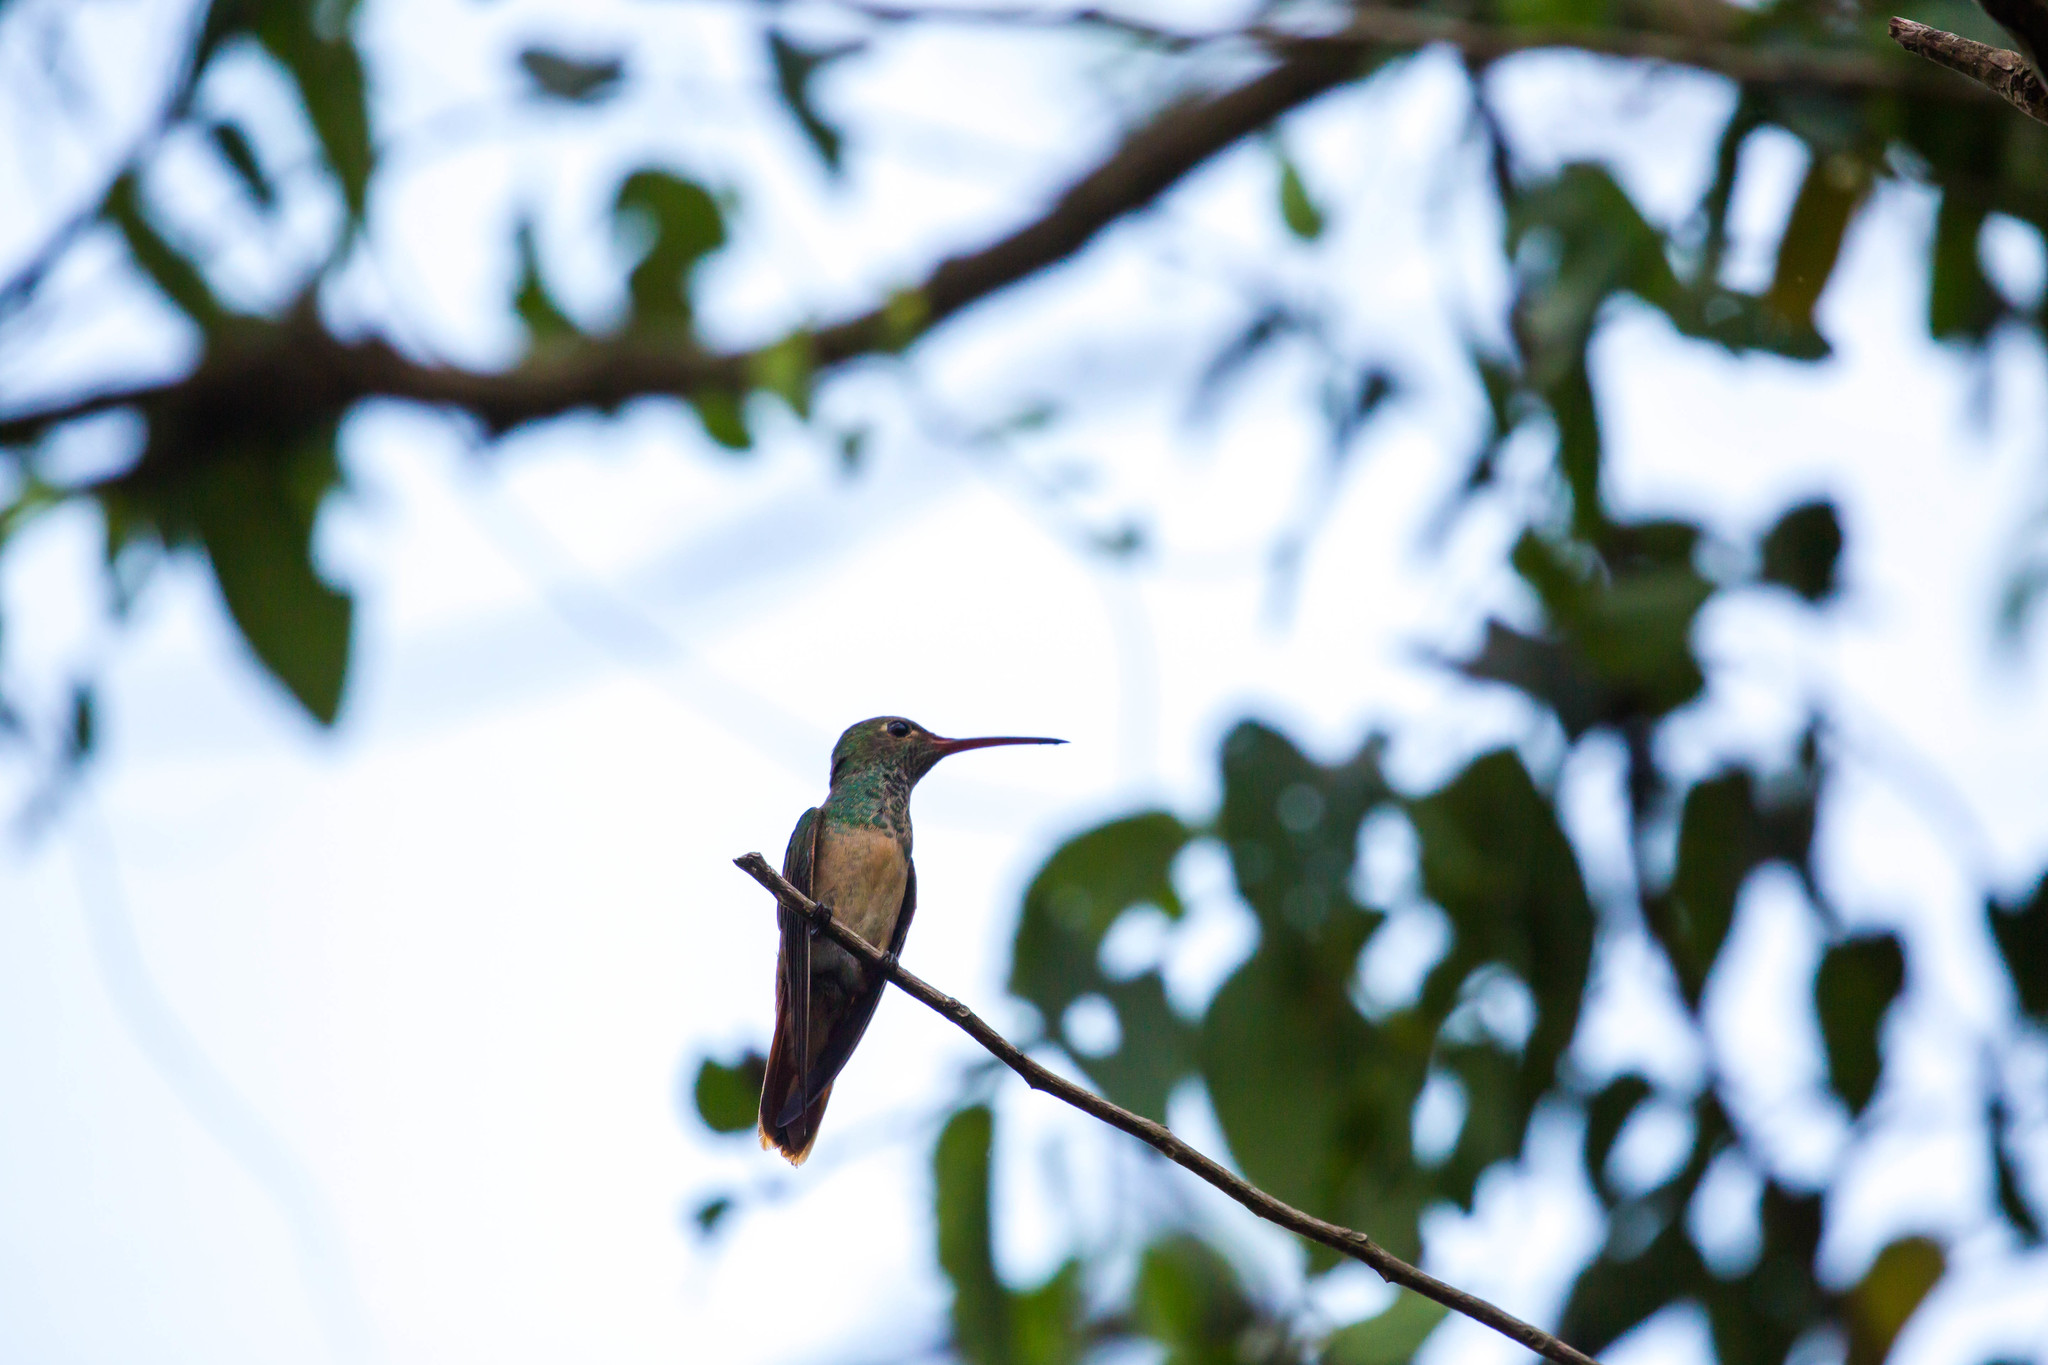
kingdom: Animalia
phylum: Chordata
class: Aves
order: Apodiformes
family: Trochilidae
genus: Amazilia
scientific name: Amazilia yucatanensis
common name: Buff-bellied hummingbird
